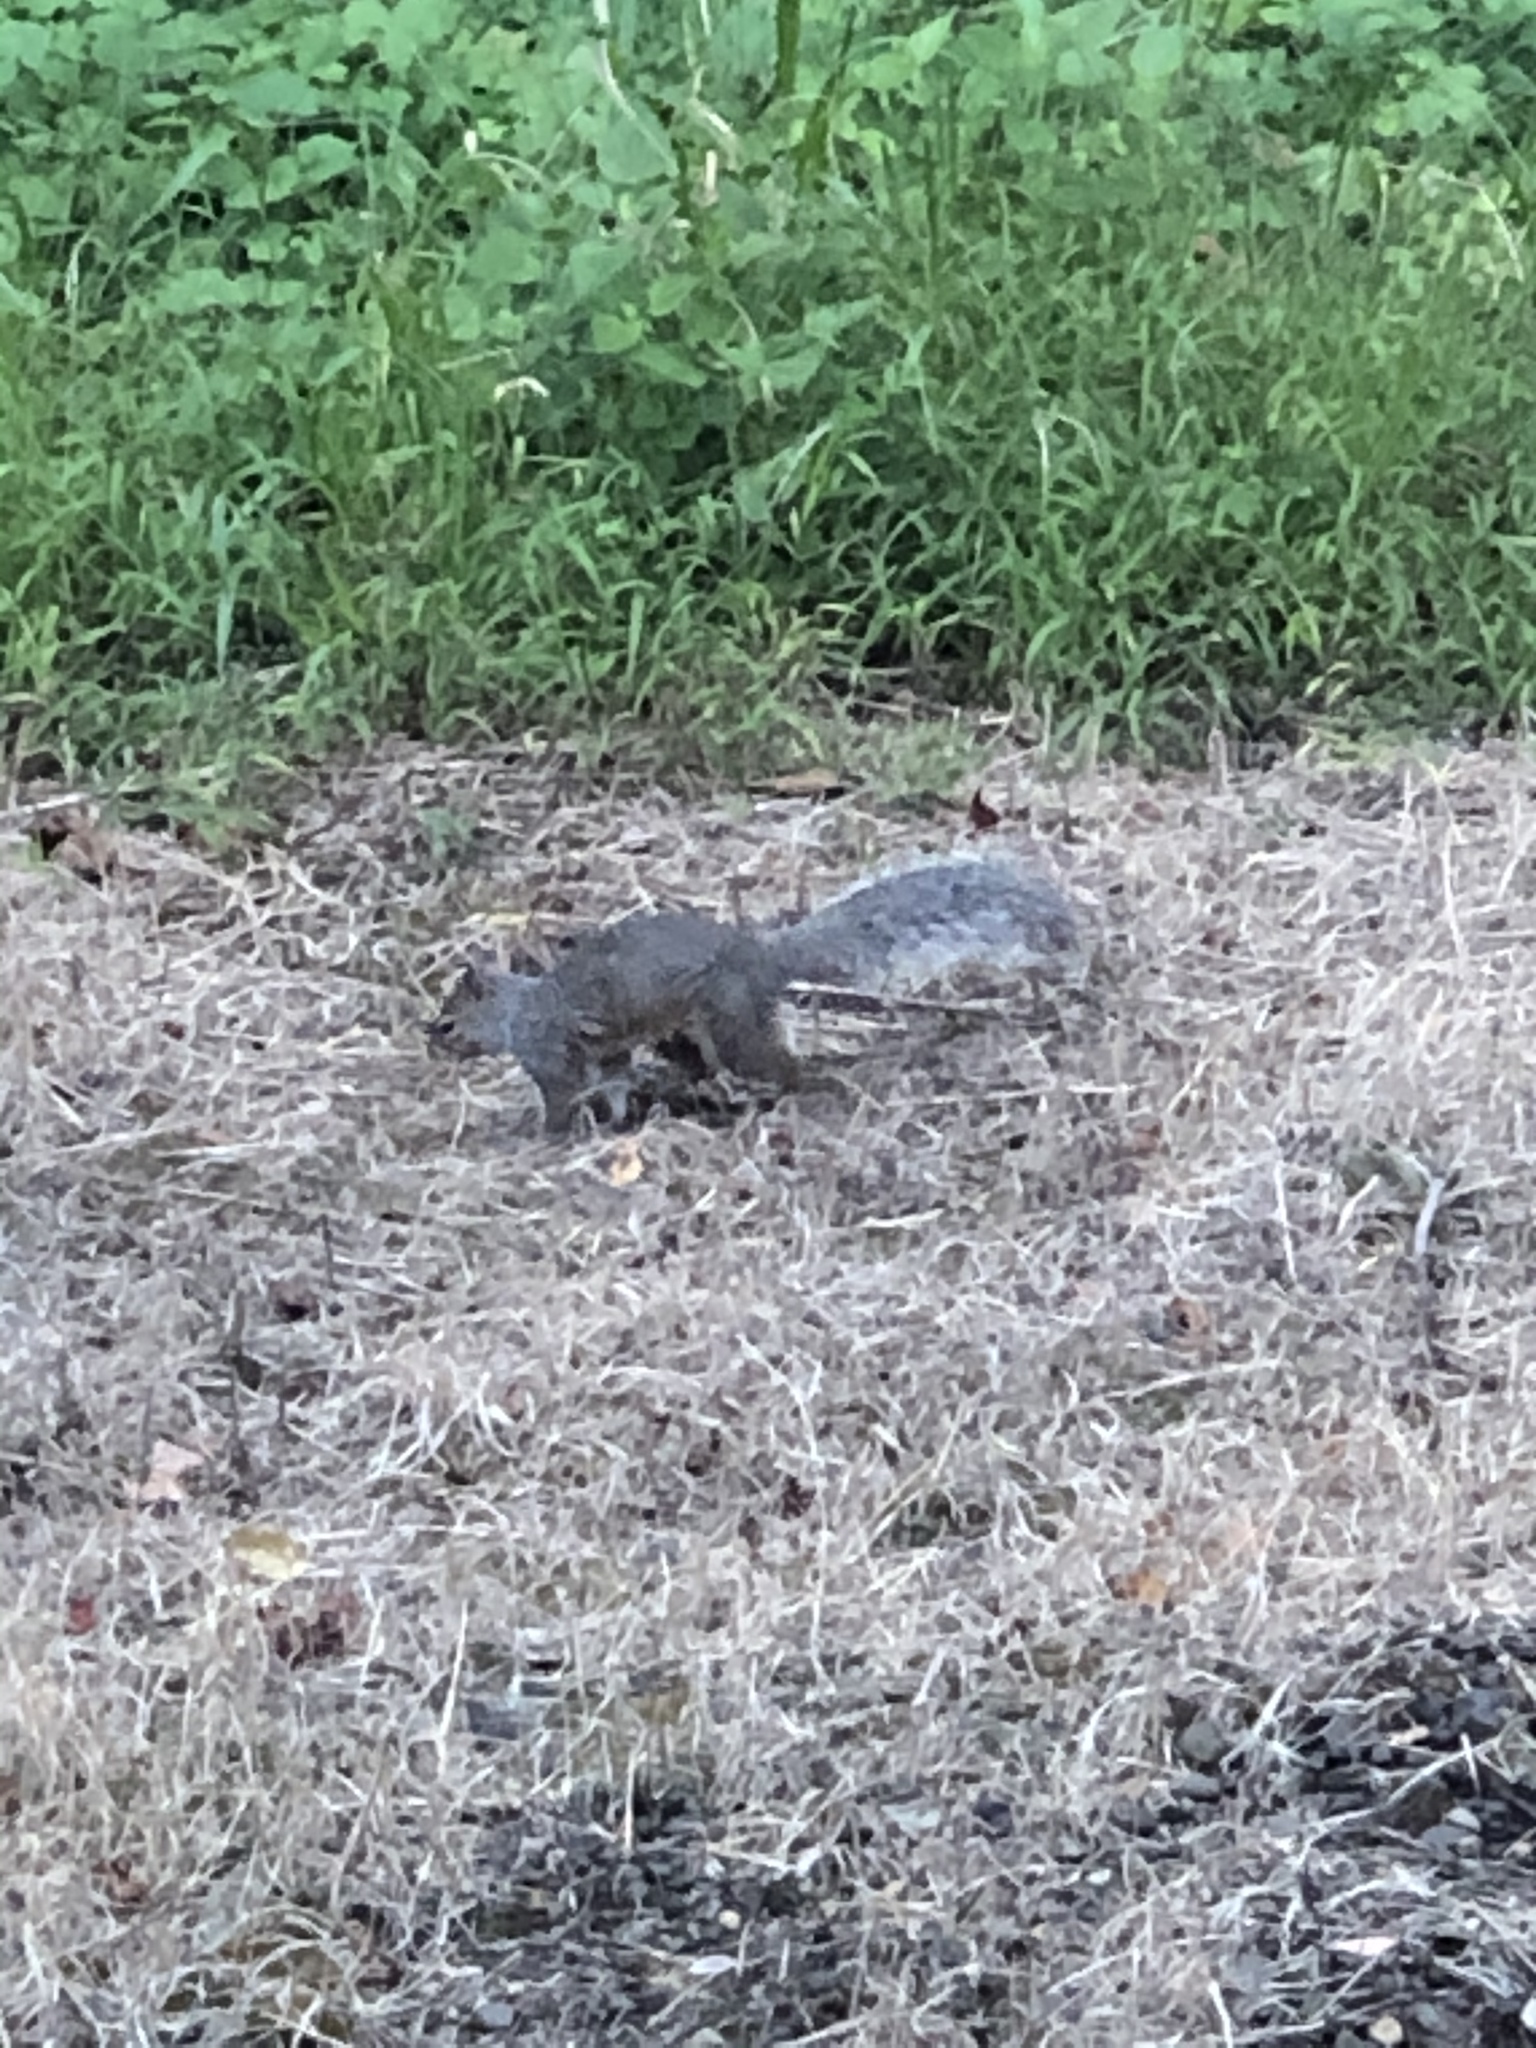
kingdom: Animalia
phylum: Chordata
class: Mammalia
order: Rodentia
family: Sciuridae
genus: Sciurus
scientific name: Sciurus carolinensis
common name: Eastern gray squirrel
